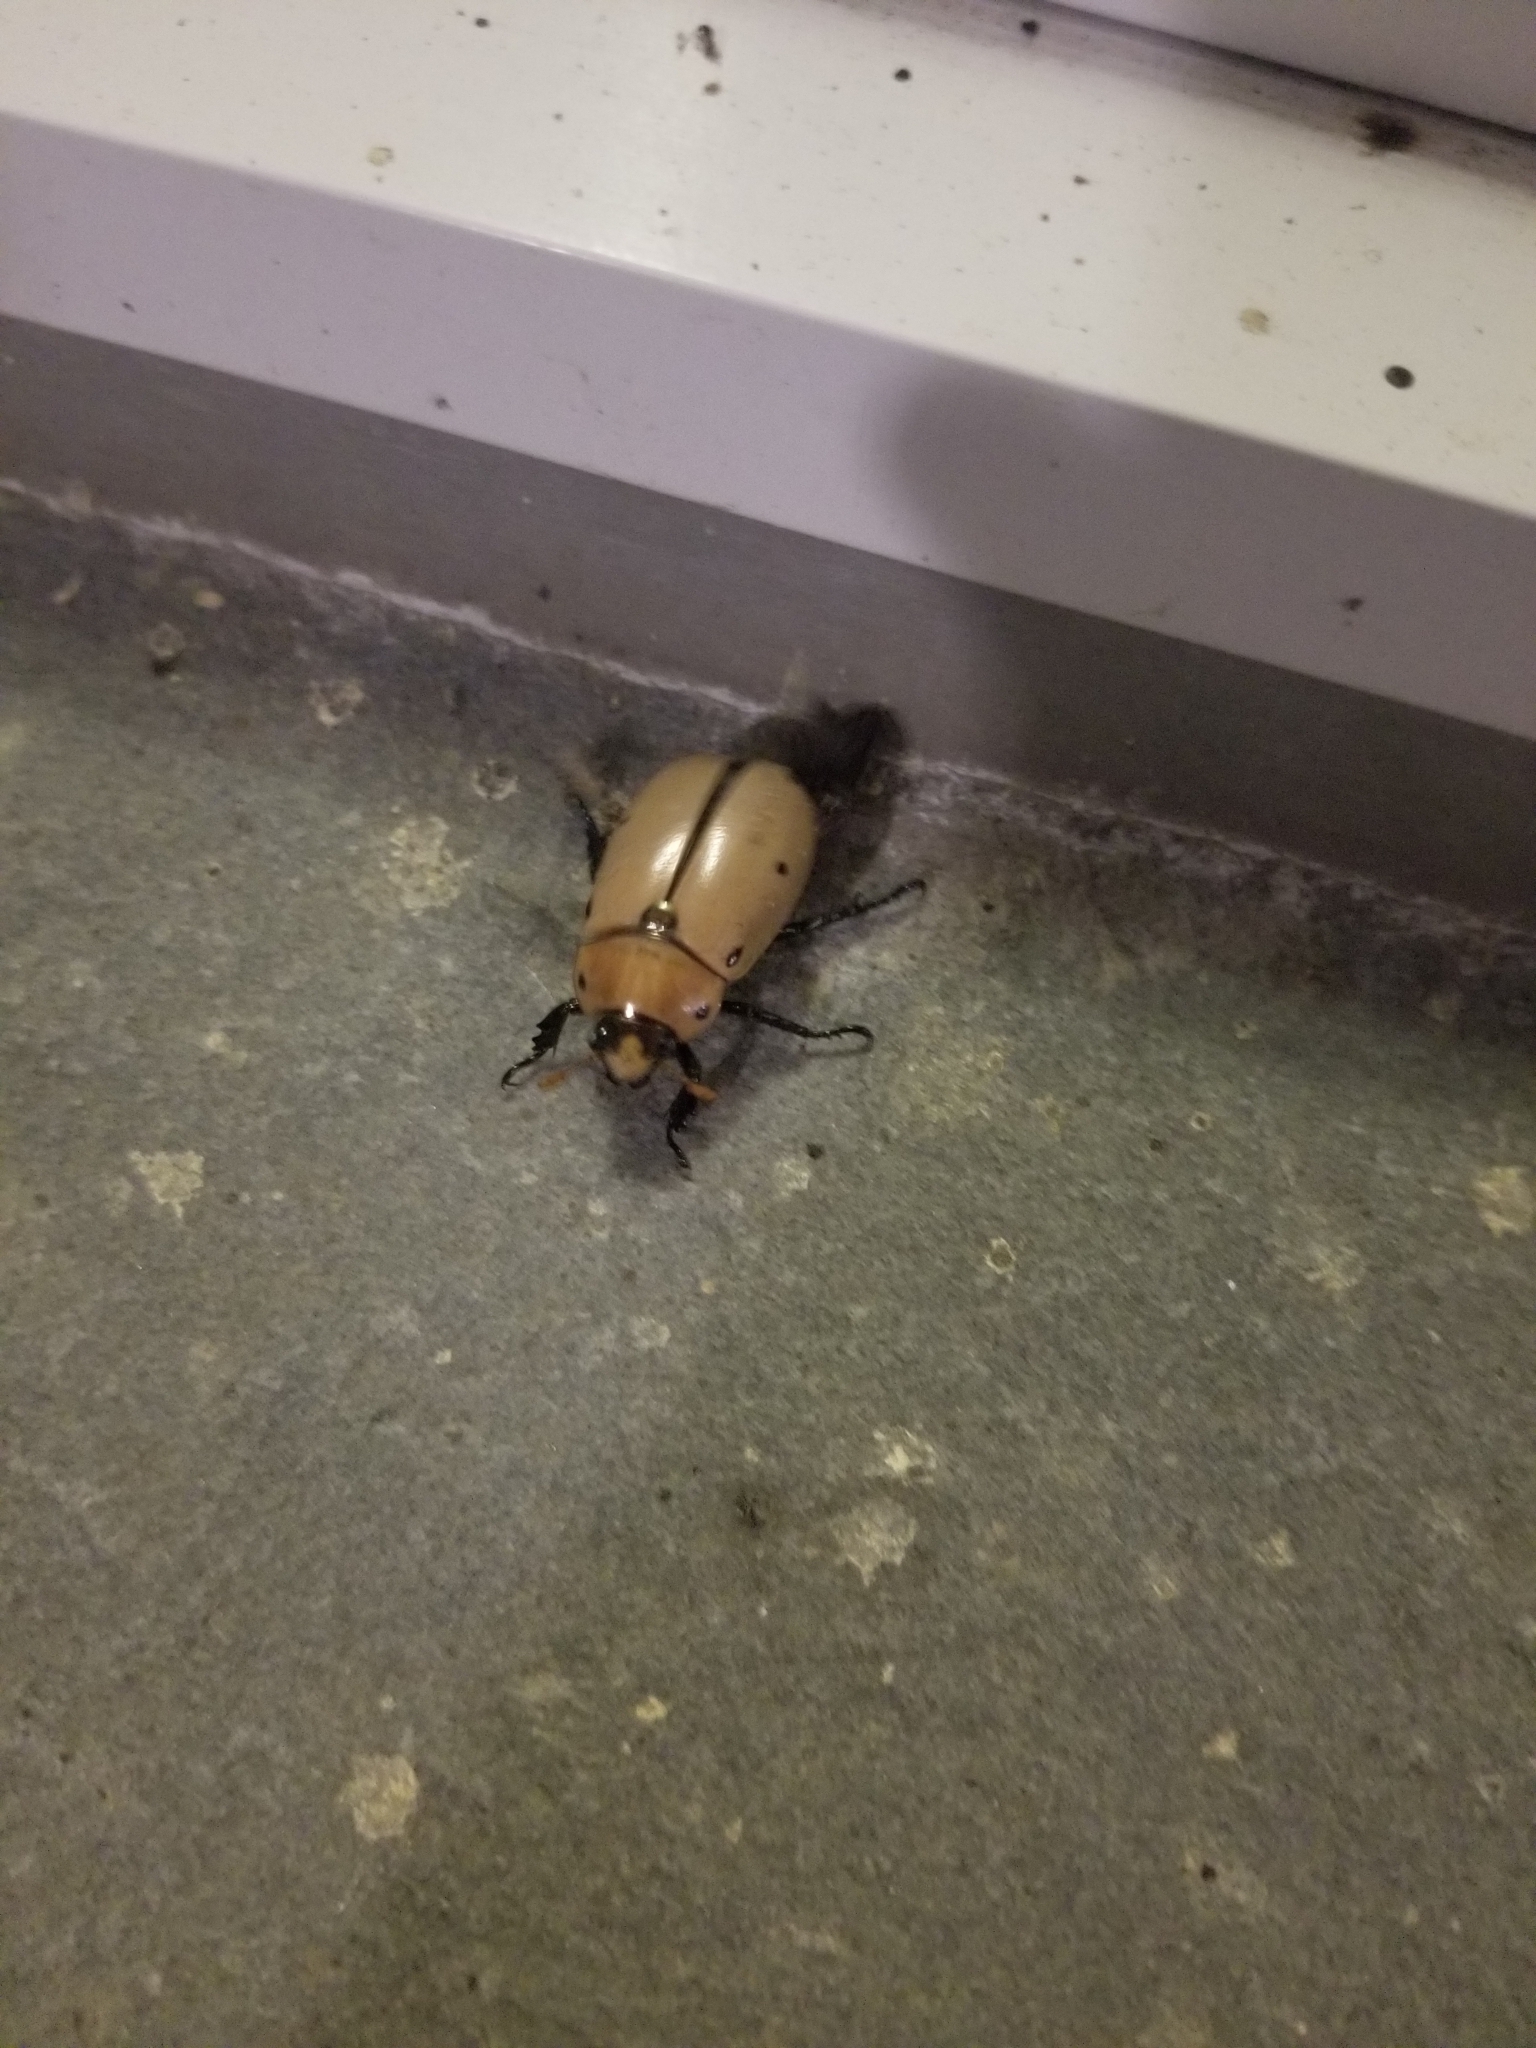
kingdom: Animalia
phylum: Arthropoda
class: Insecta
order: Coleoptera
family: Scarabaeidae
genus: Pelidnota
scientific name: Pelidnota punctata
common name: Grapevine beetle
